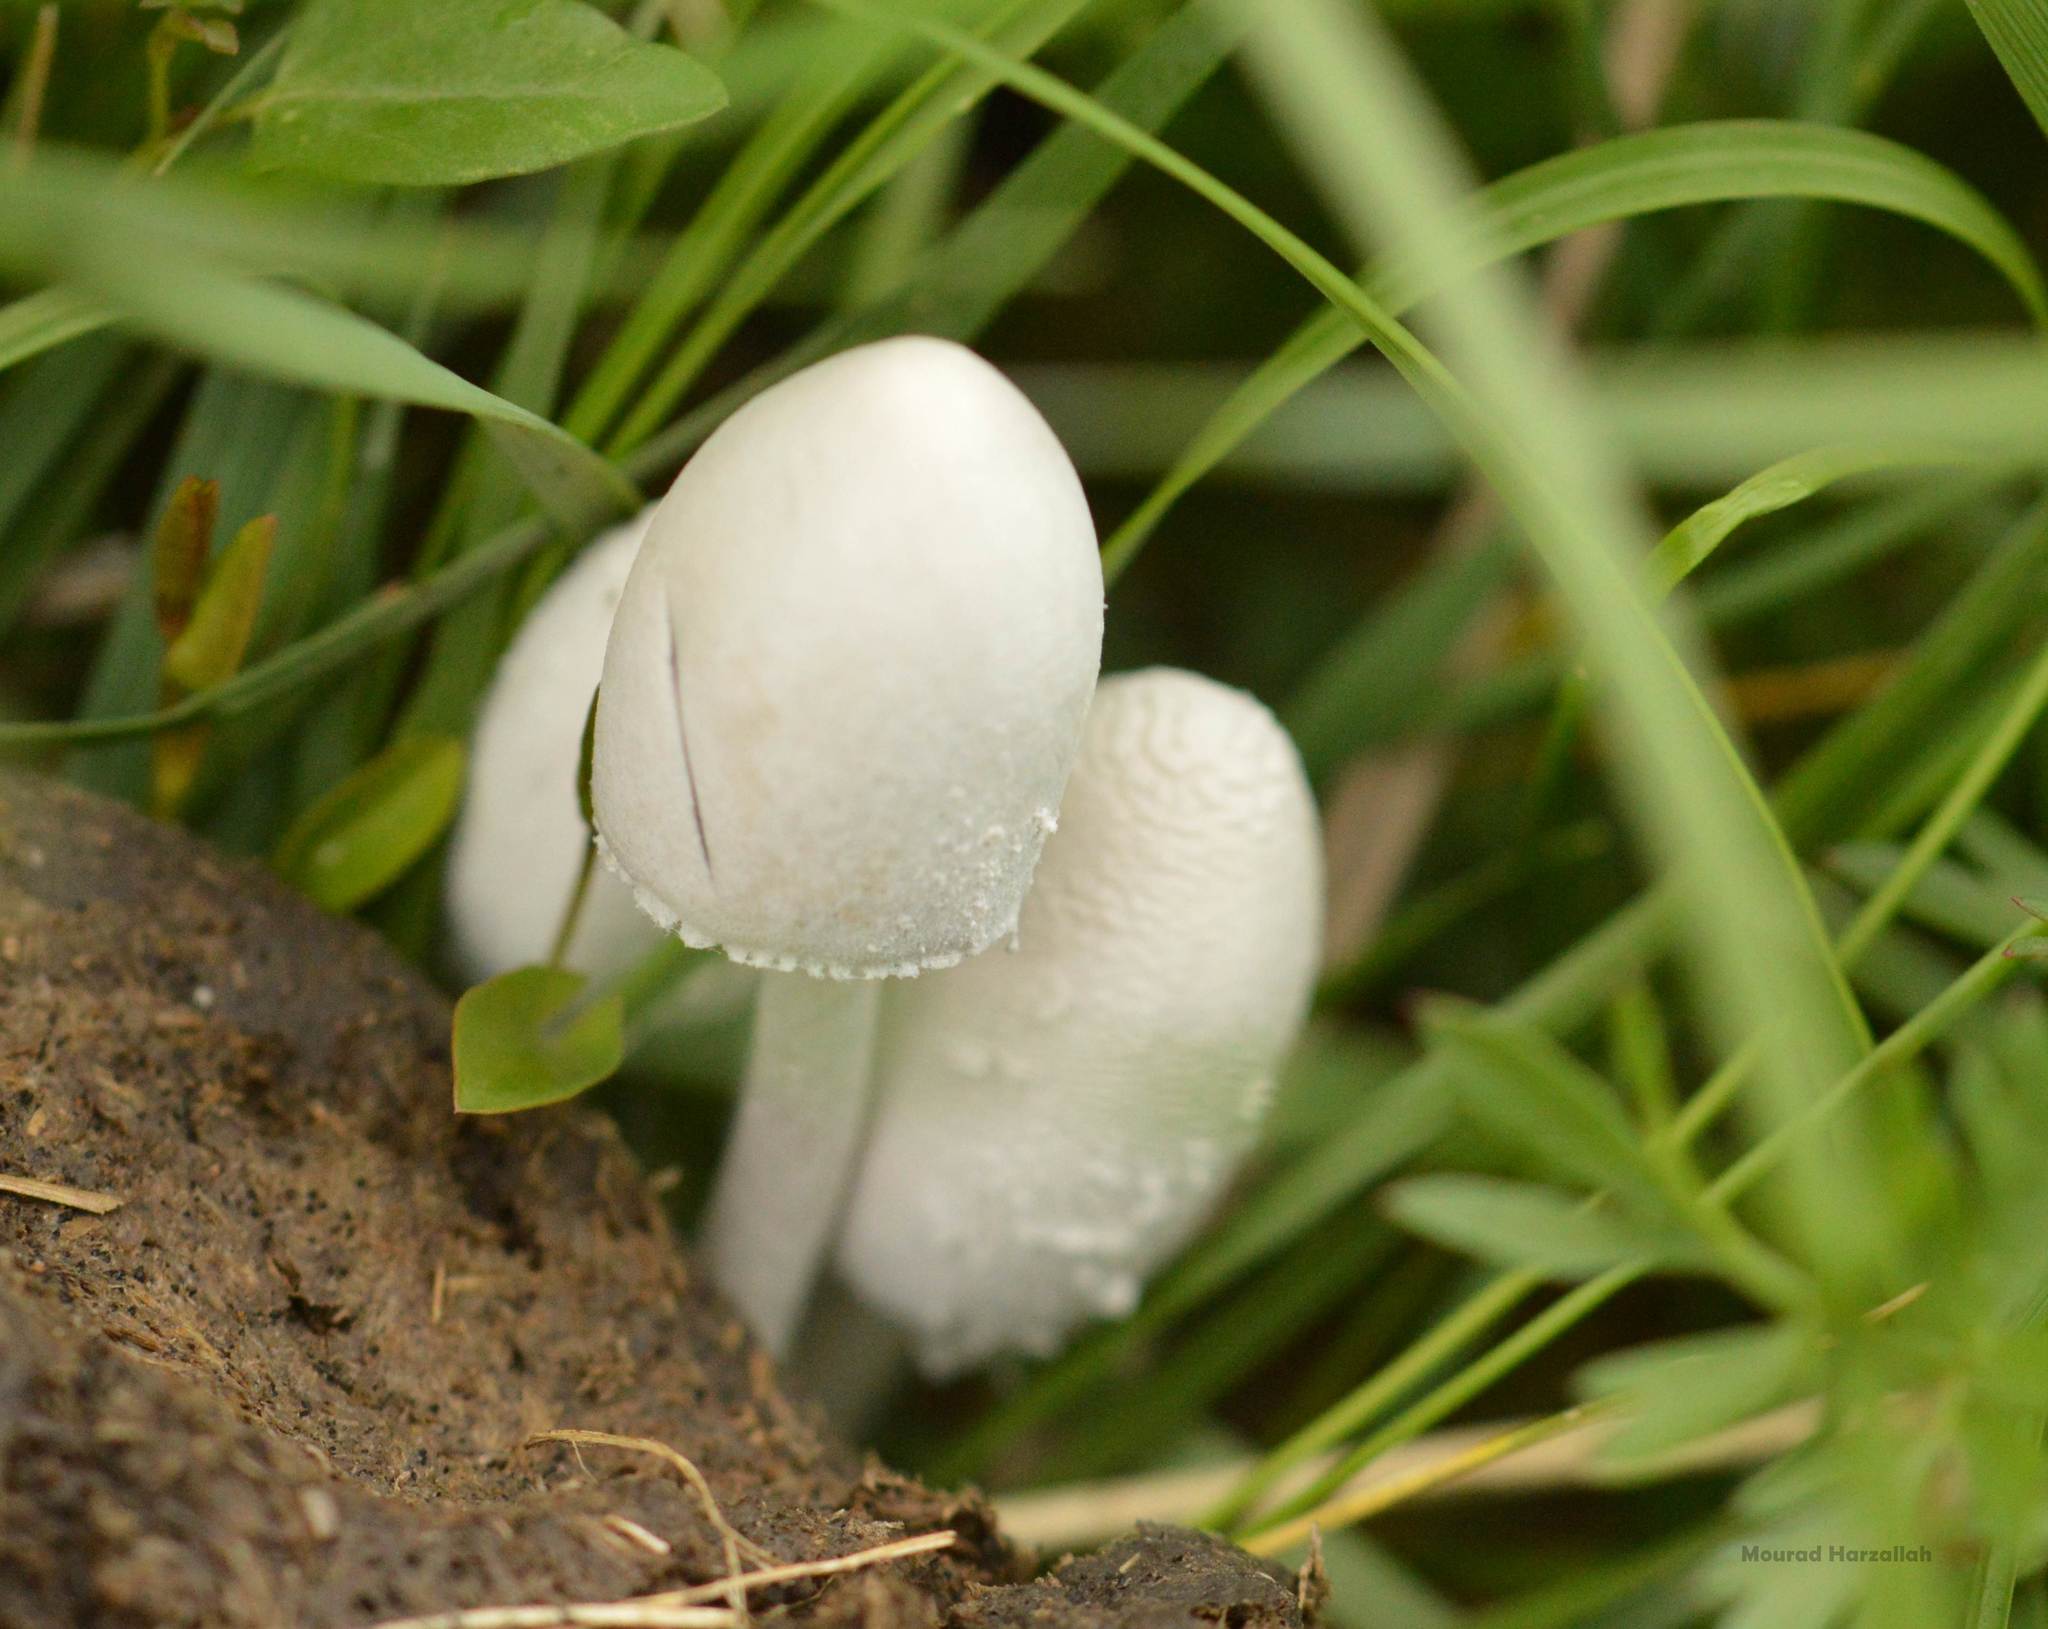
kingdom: Fungi
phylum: Basidiomycota
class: Agaricomycetes
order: Agaricales
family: Agaricaceae
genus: Coprinus
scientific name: Coprinus comatus
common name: Lawyer's wig
